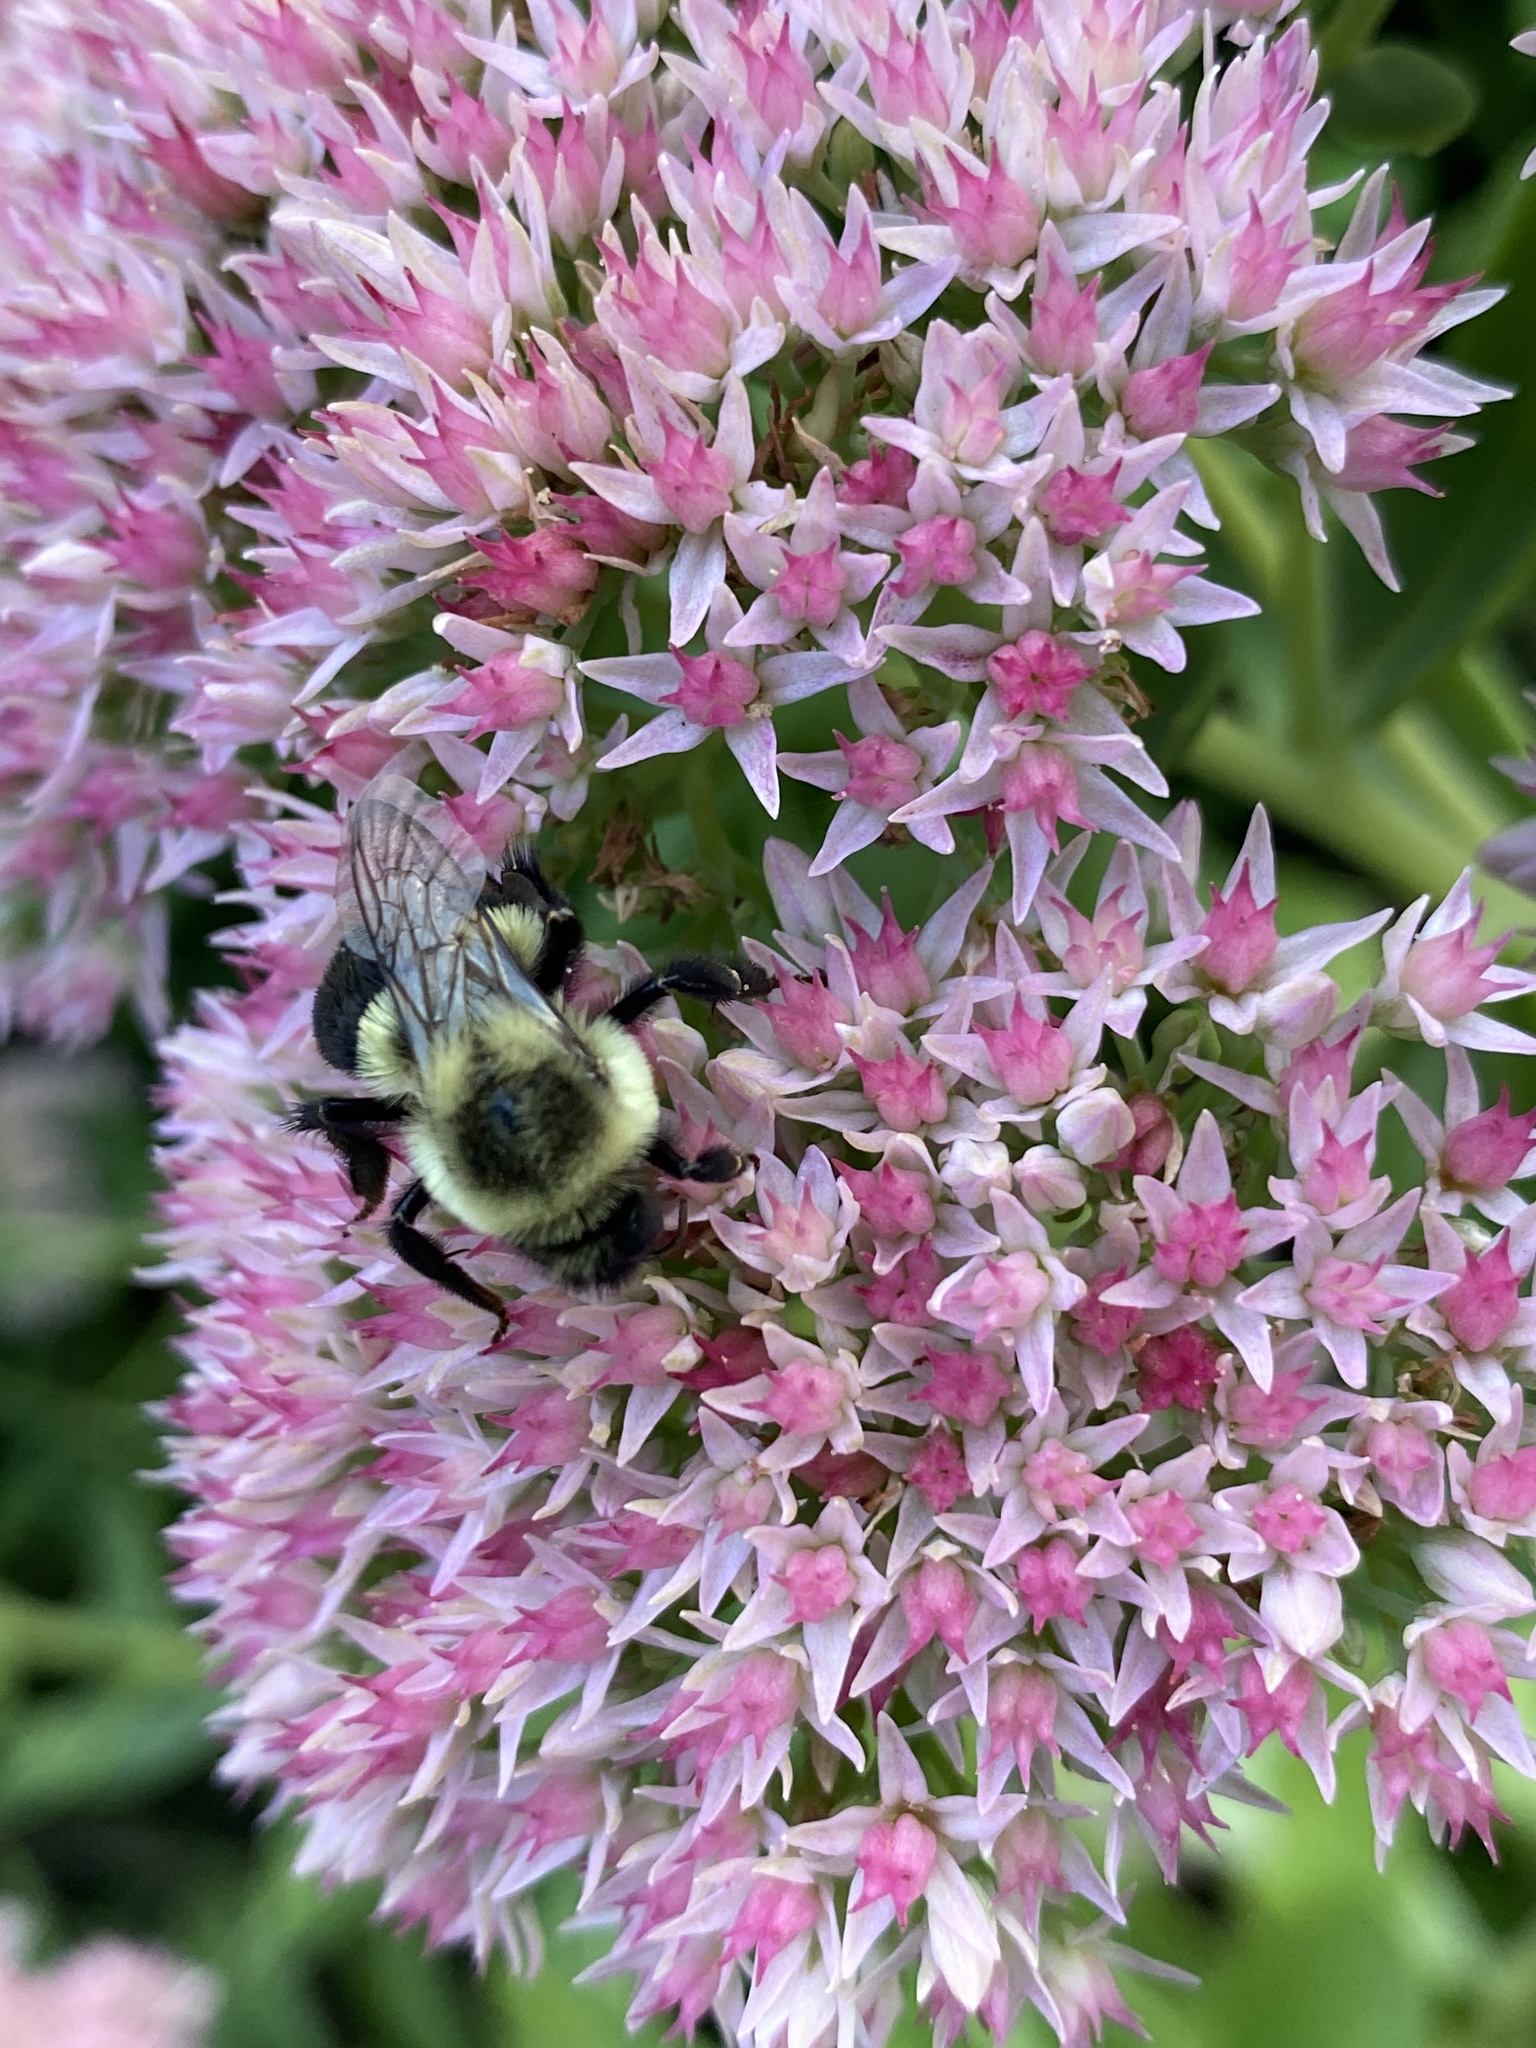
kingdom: Animalia
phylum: Arthropoda
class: Insecta
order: Hymenoptera
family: Apidae
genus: Bombus
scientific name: Bombus impatiens
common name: Common eastern bumble bee
